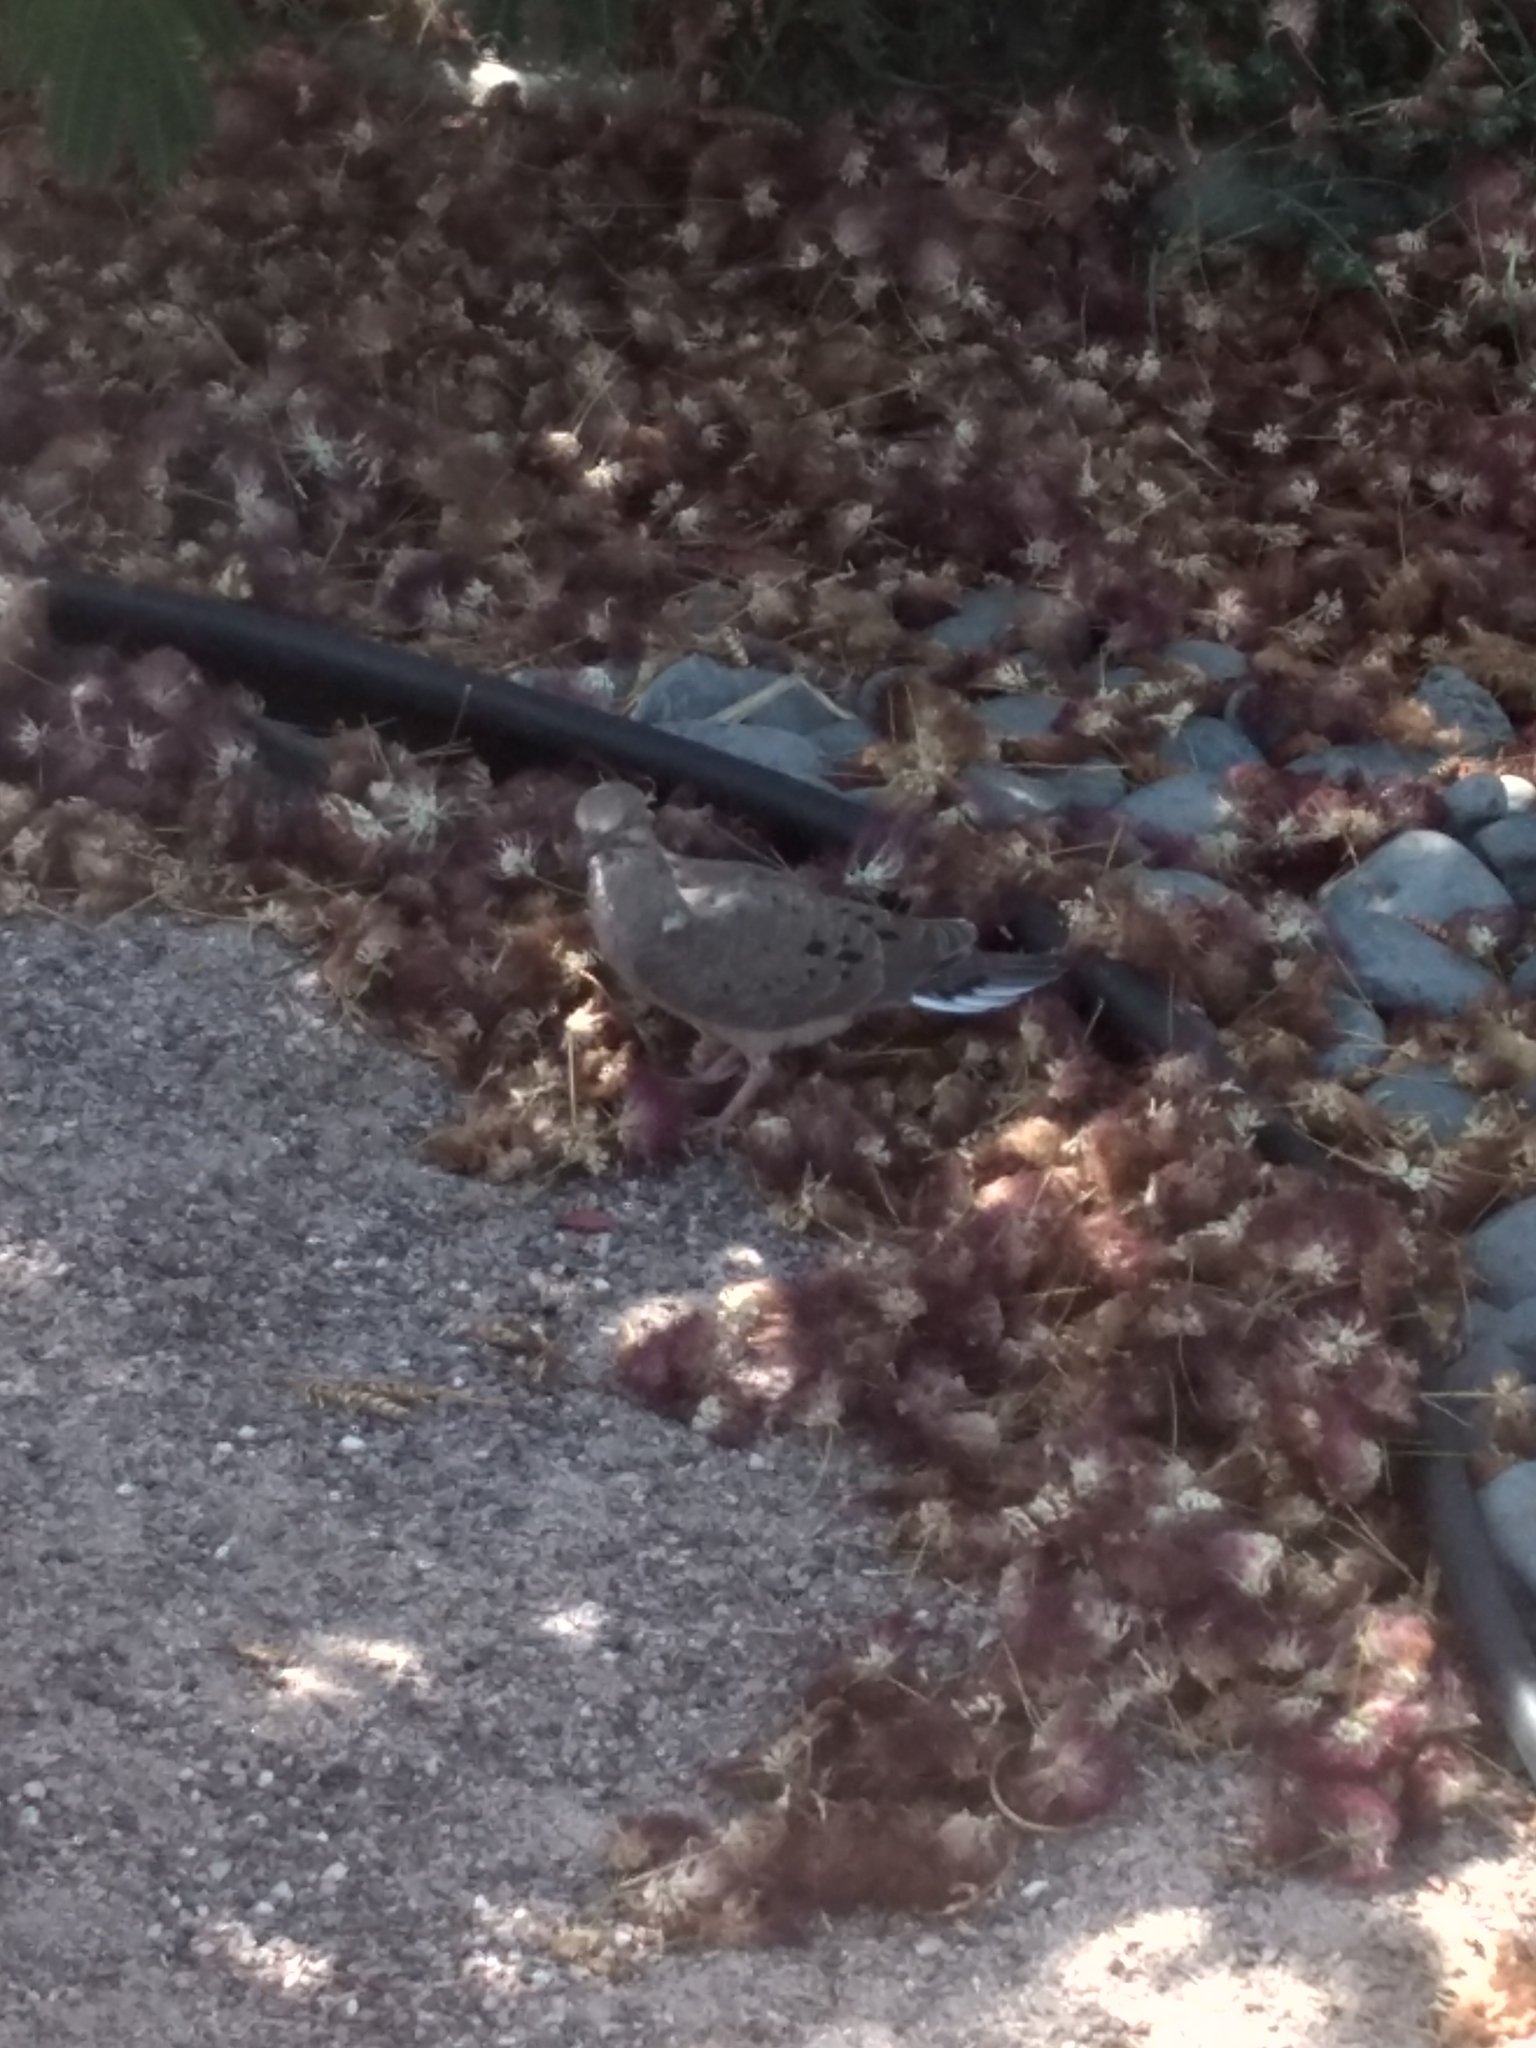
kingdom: Animalia
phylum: Chordata
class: Aves
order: Columbiformes
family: Columbidae
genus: Zenaida
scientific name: Zenaida macroura
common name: Mourning dove
